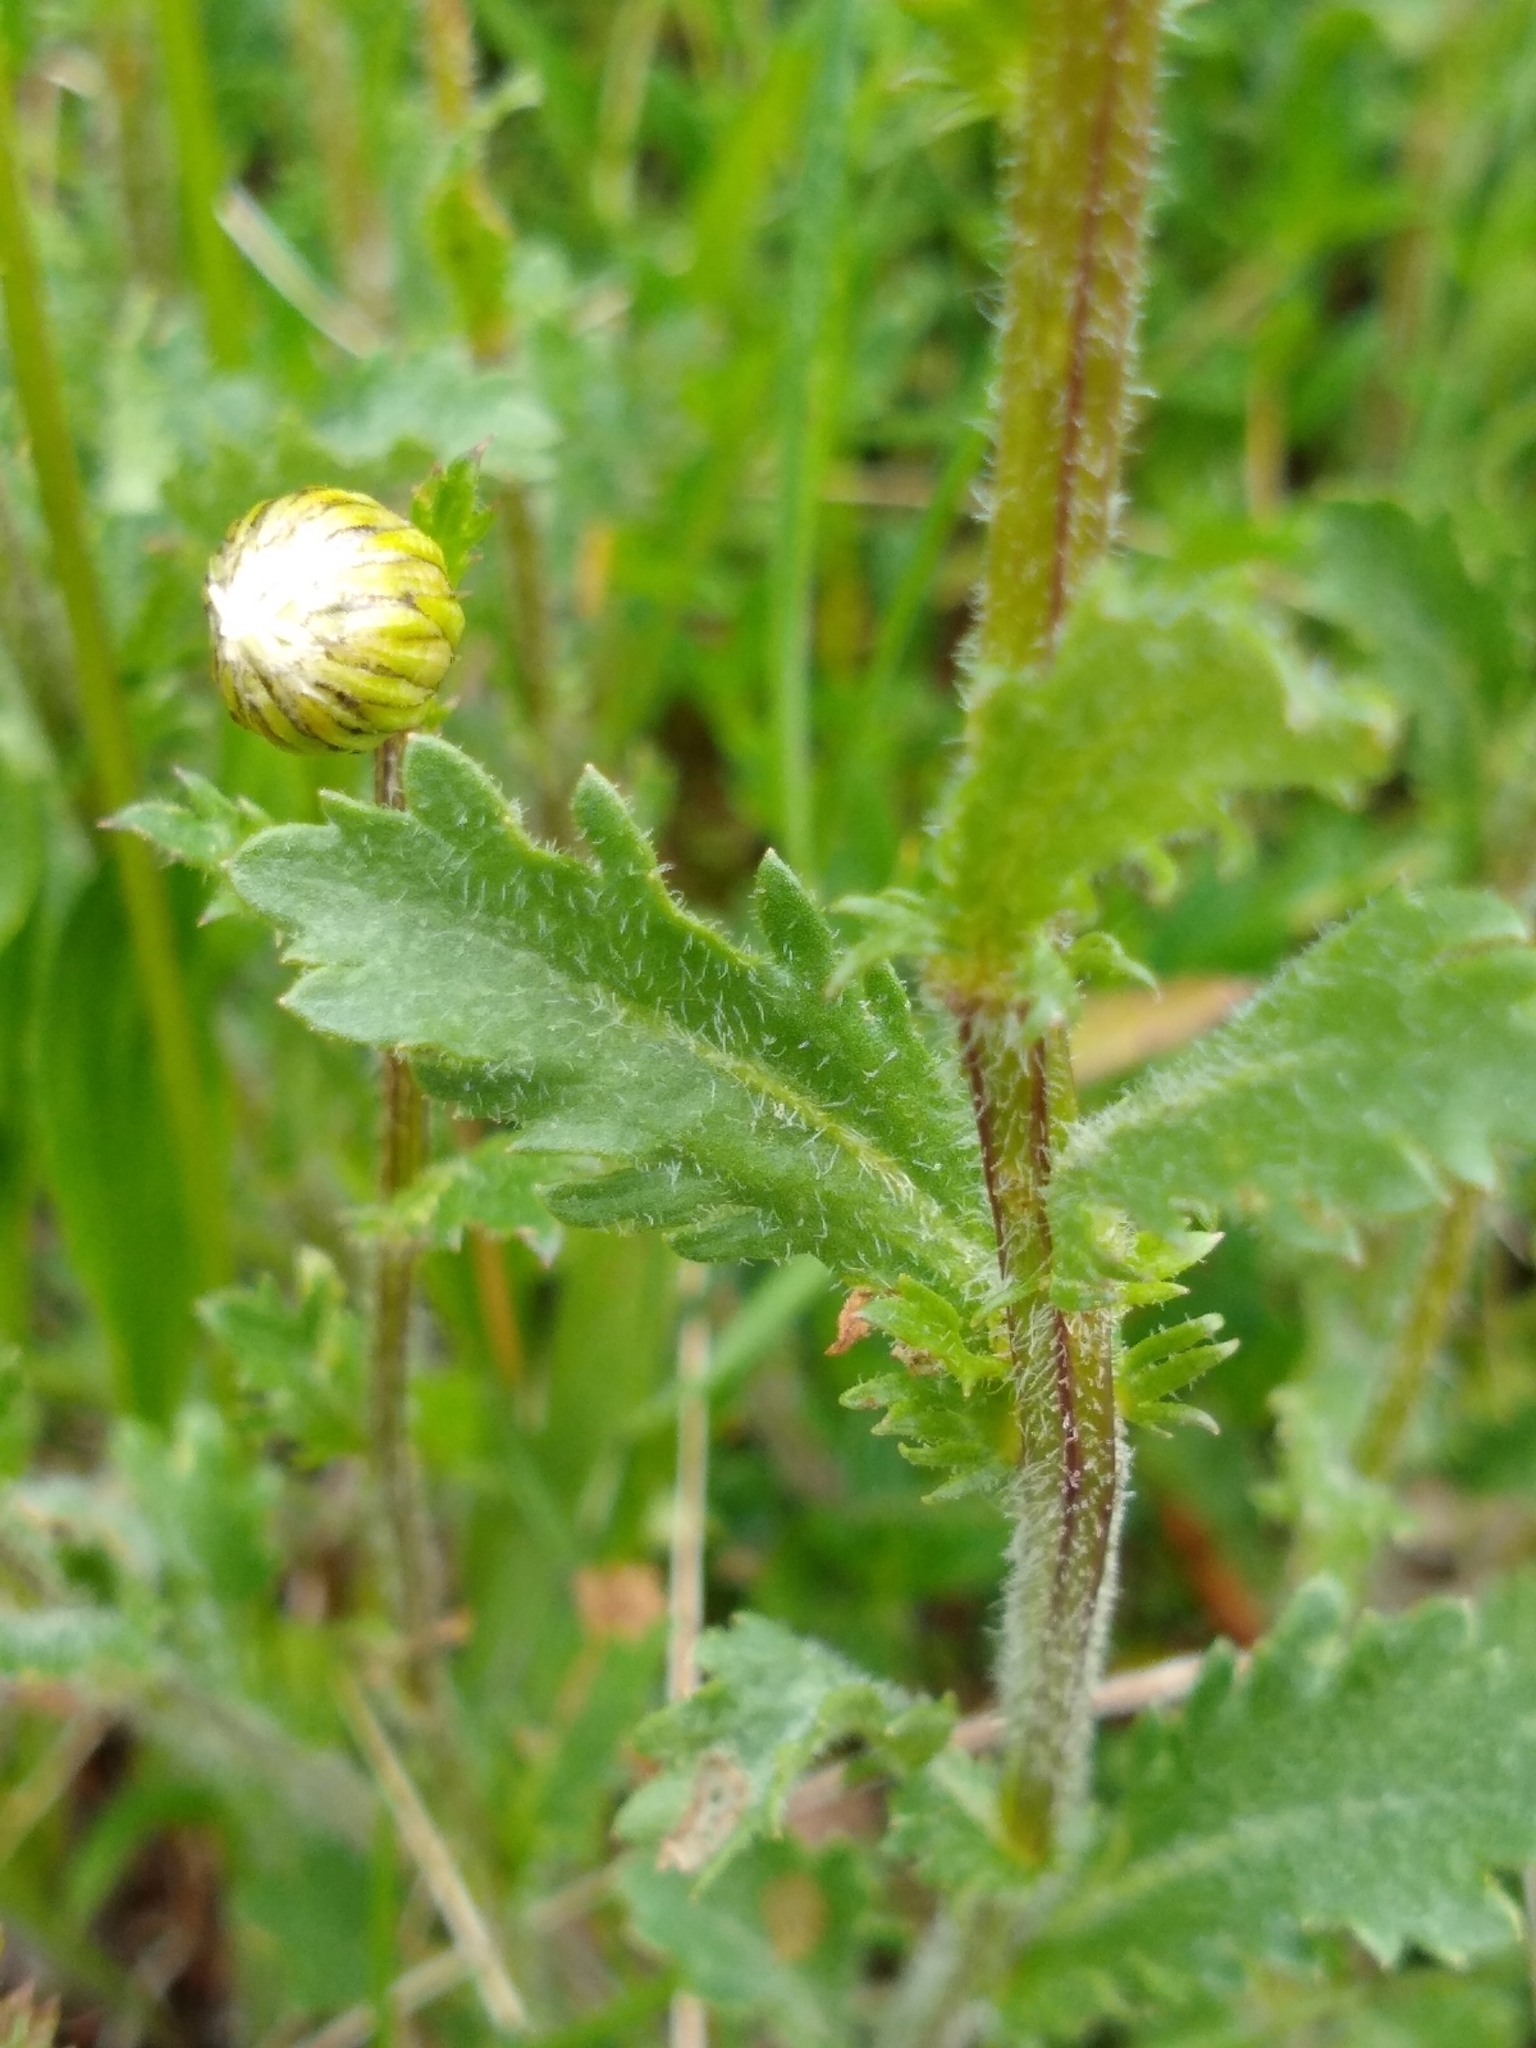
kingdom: Plantae
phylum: Tracheophyta
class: Magnoliopsida
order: Asterales
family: Asteraceae
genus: Leucanthemum
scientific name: Leucanthemum vulgare
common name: Oxeye daisy
